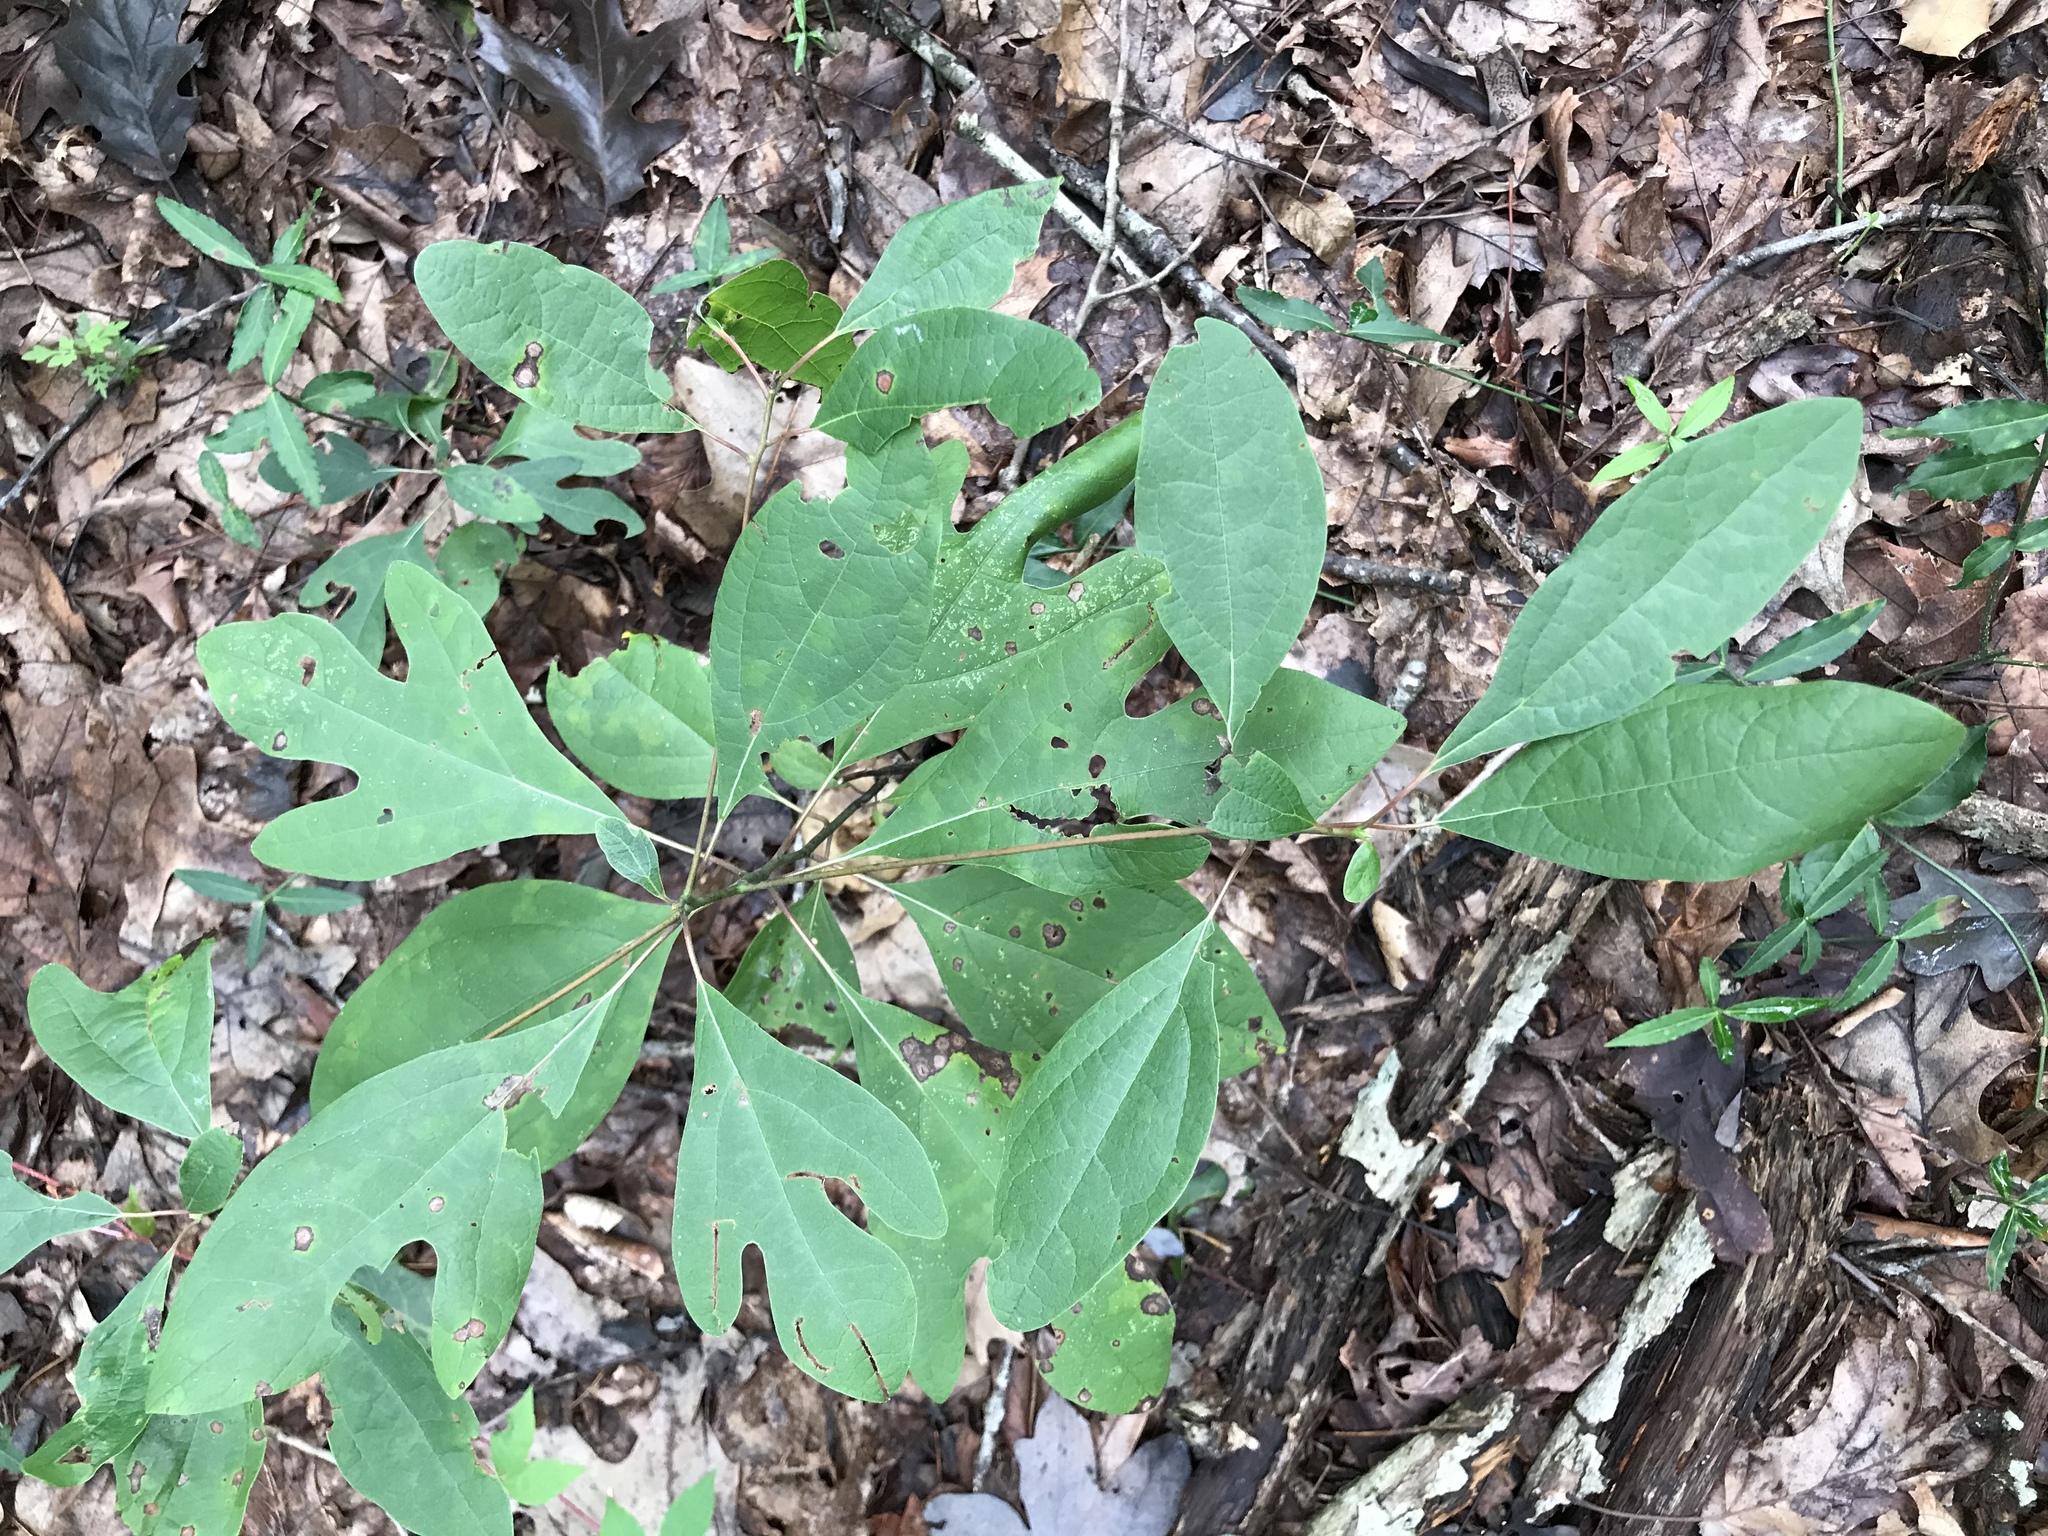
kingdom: Plantae
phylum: Tracheophyta
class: Magnoliopsida
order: Laurales
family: Lauraceae
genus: Sassafras
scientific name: Sassafras albidum
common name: Sassafras
